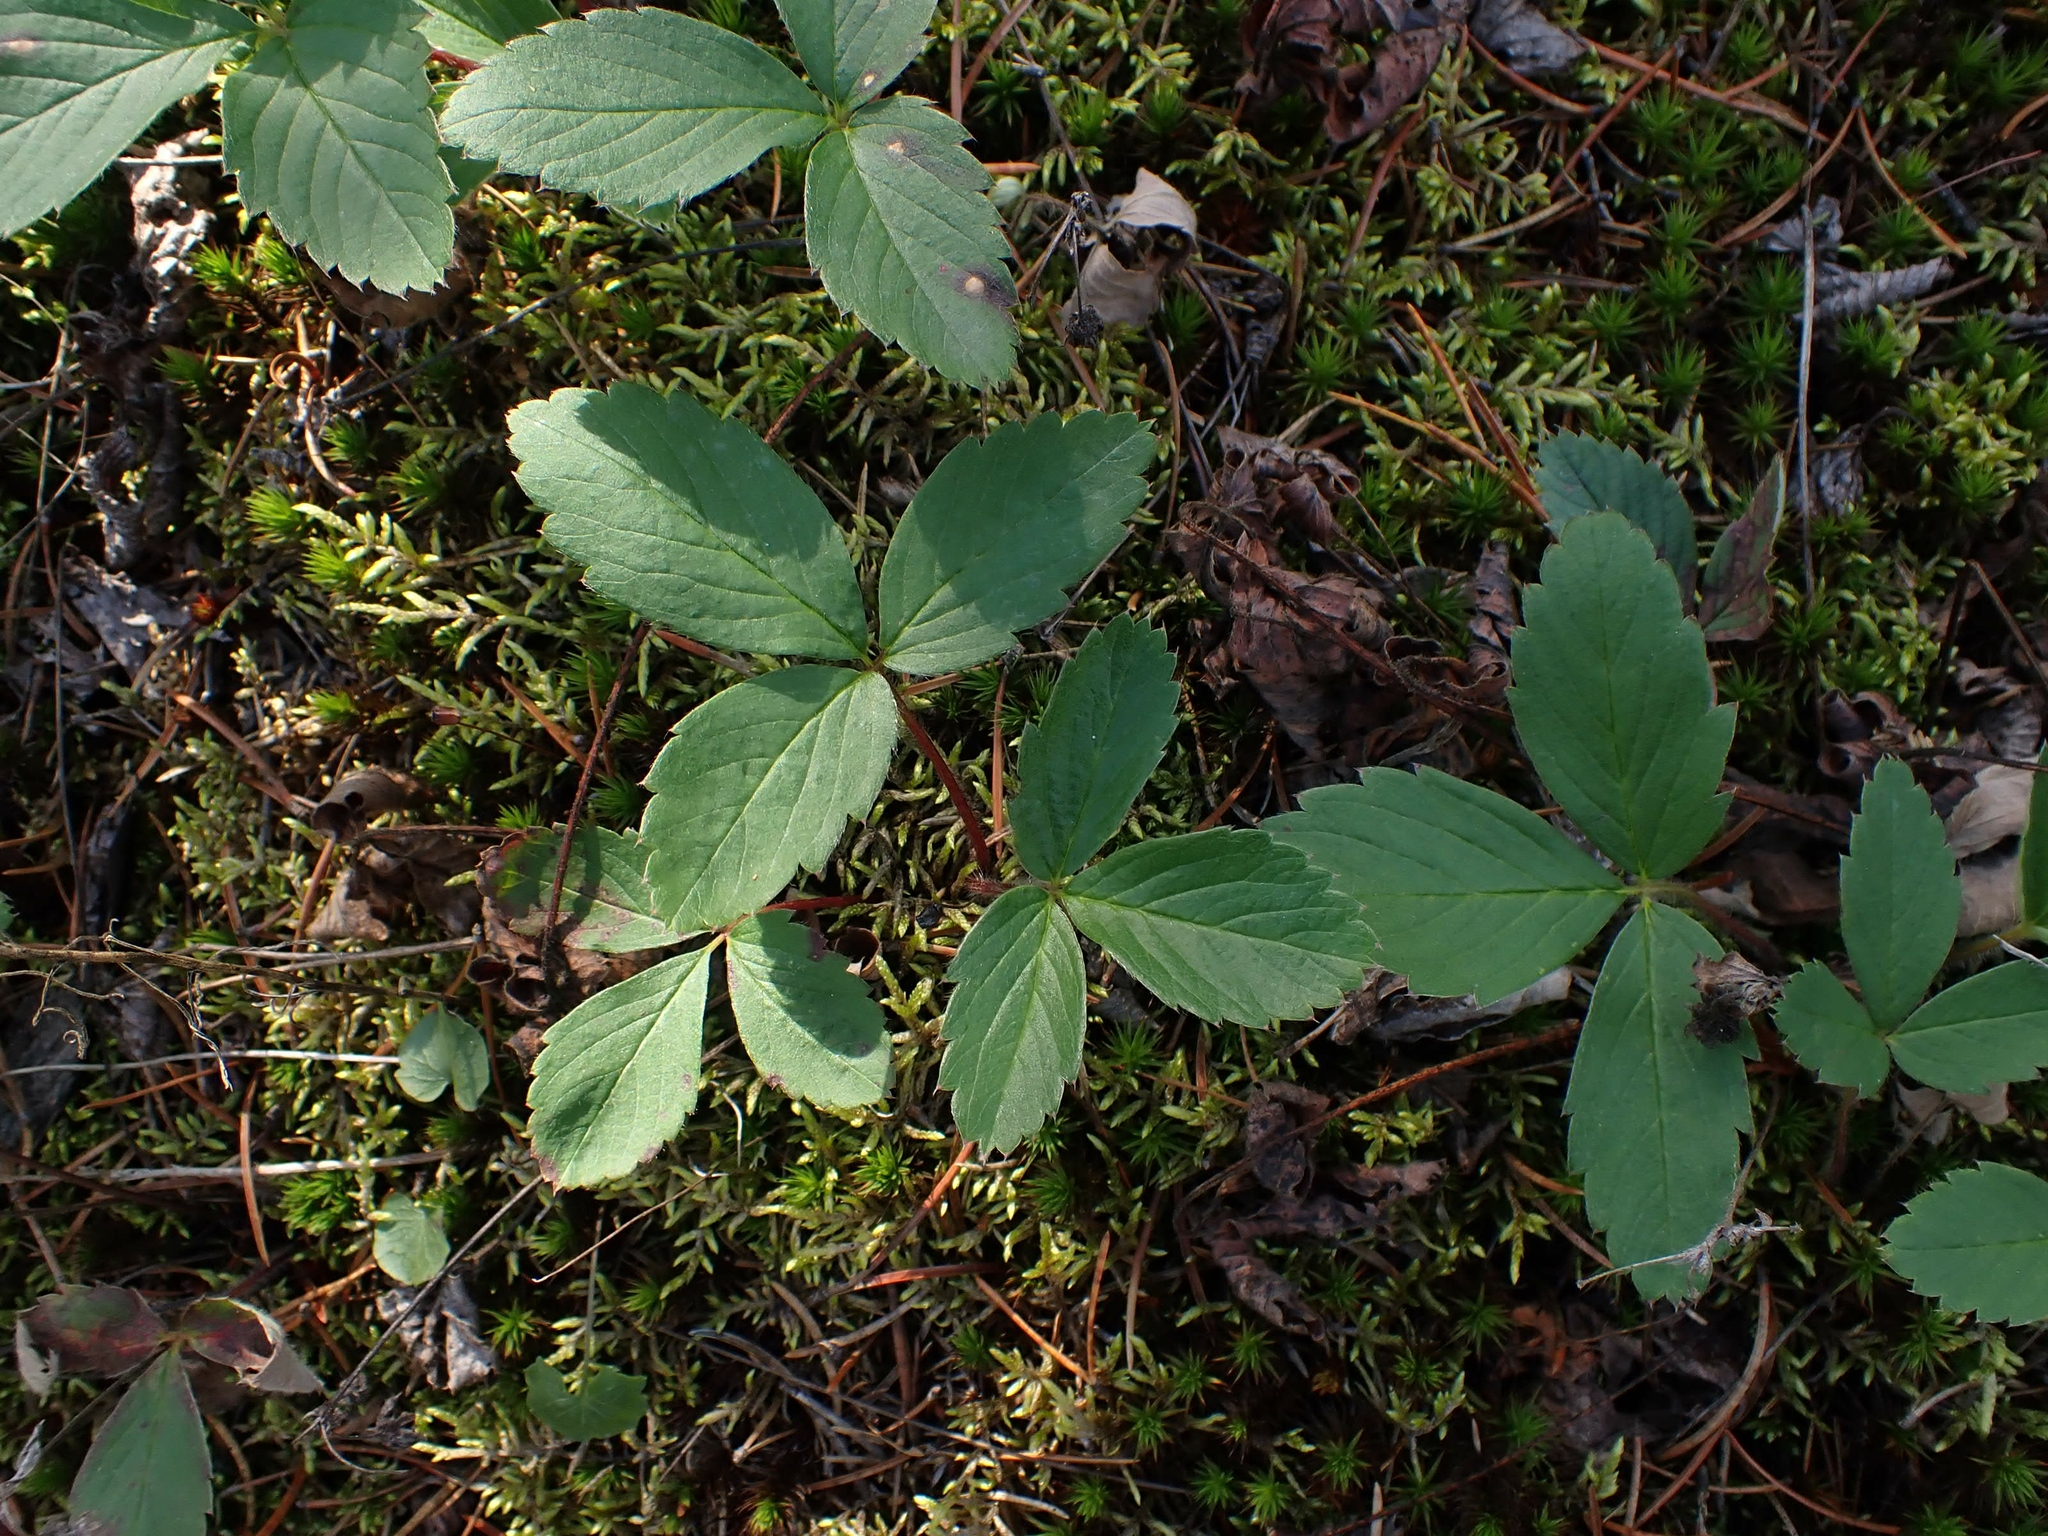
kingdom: Plantae
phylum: Tracheophyta
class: Magnoliopsida
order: Rosales
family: Rosaceae
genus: Fragaria
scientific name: Fragaria virginiana
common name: Thickleaved wild strawberry
